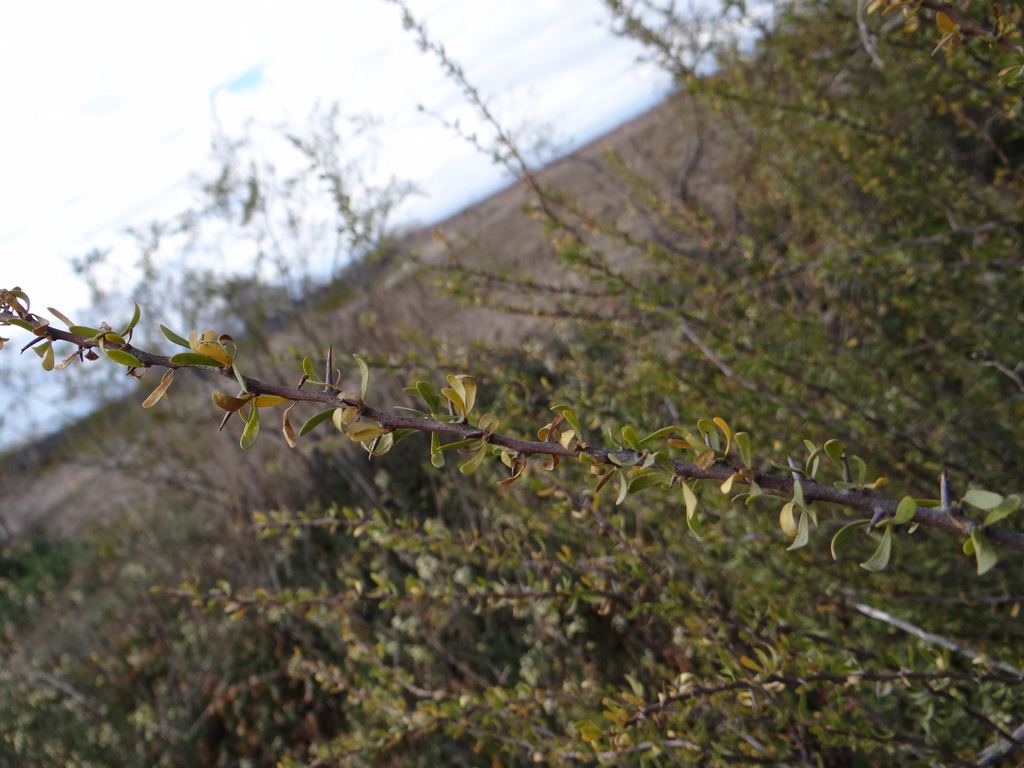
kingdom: Plantae
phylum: Tracheophyta
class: Magnoliopsida
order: Caryophyllales
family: Nyctaginaceae
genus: Bougainvillea
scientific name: Bougainvillea spinosa
